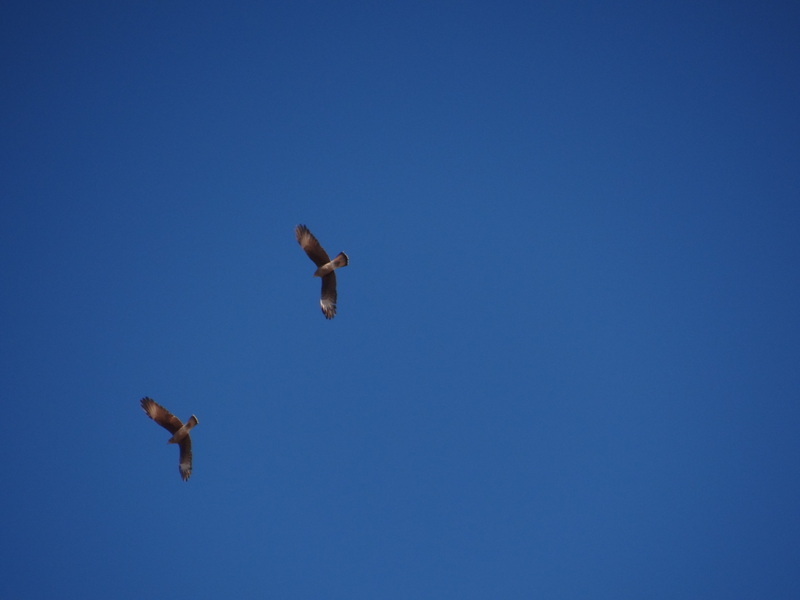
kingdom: Animalia
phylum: Chordata
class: Aves
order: Falconiformes
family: Falconidae
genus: Daptrius
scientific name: Daptrius
